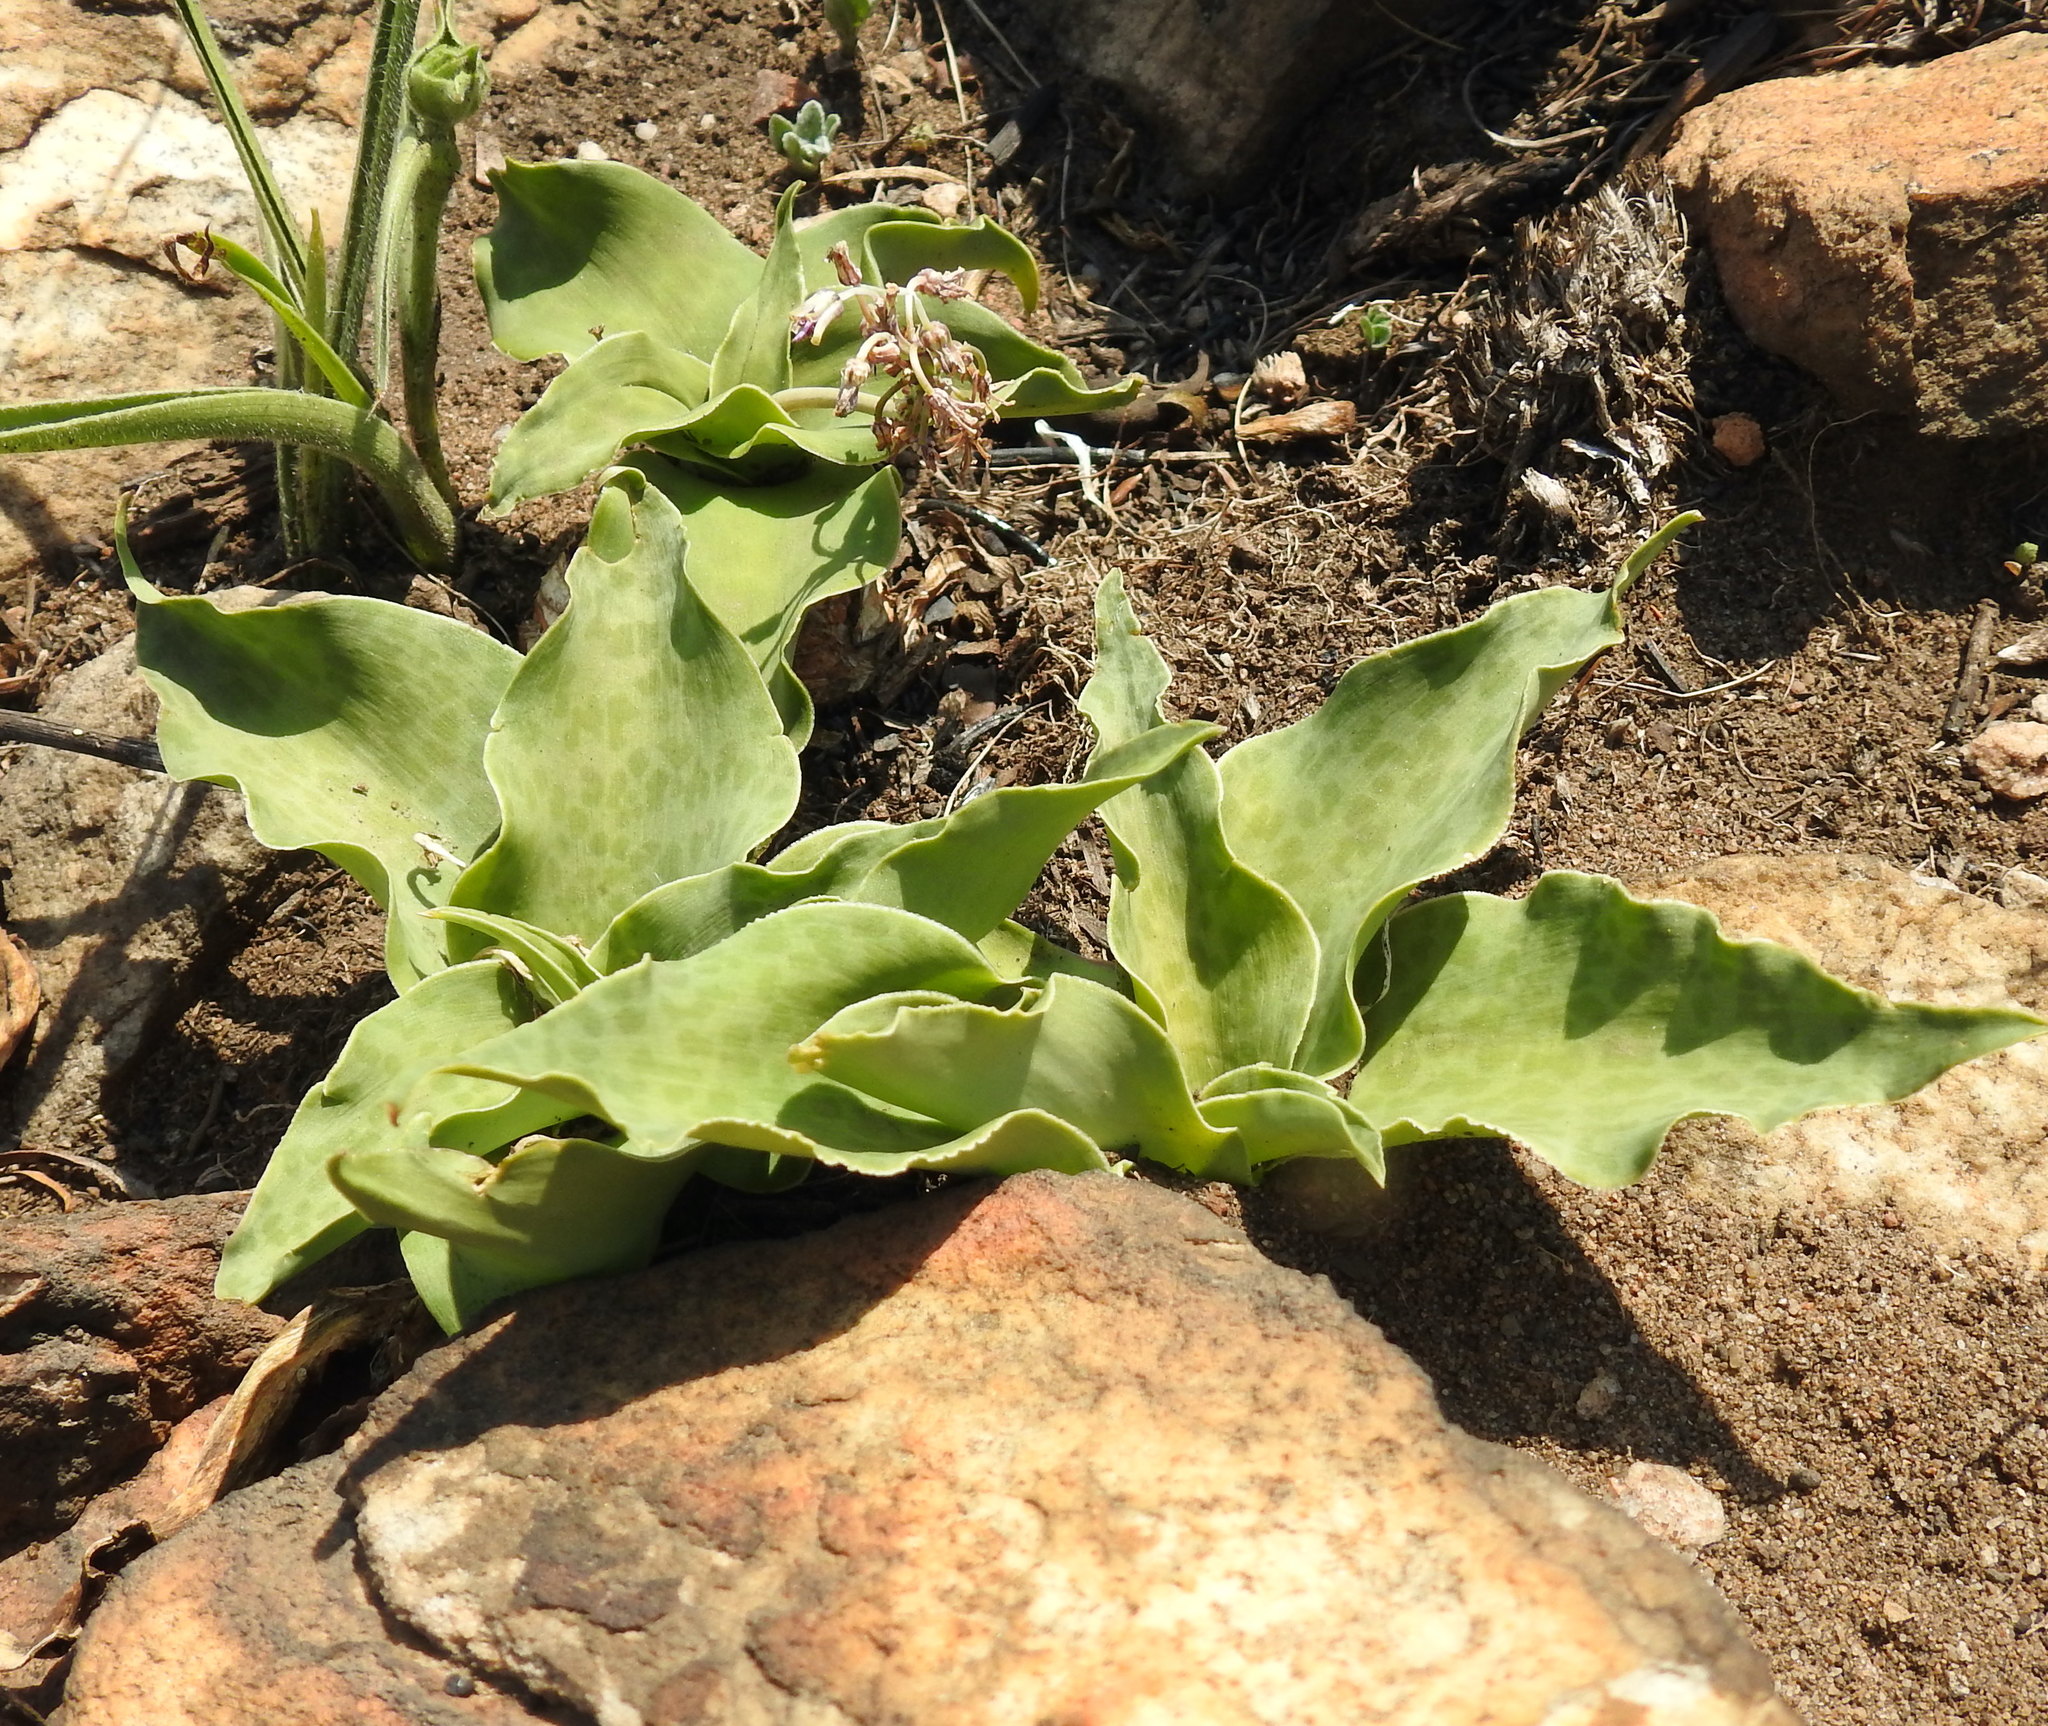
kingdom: Plantae
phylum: Tracheophyta
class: Liliopsida
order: Asparagales
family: Asparagaceae
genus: Ledebouria
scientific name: Ledebouria ovatifolia
